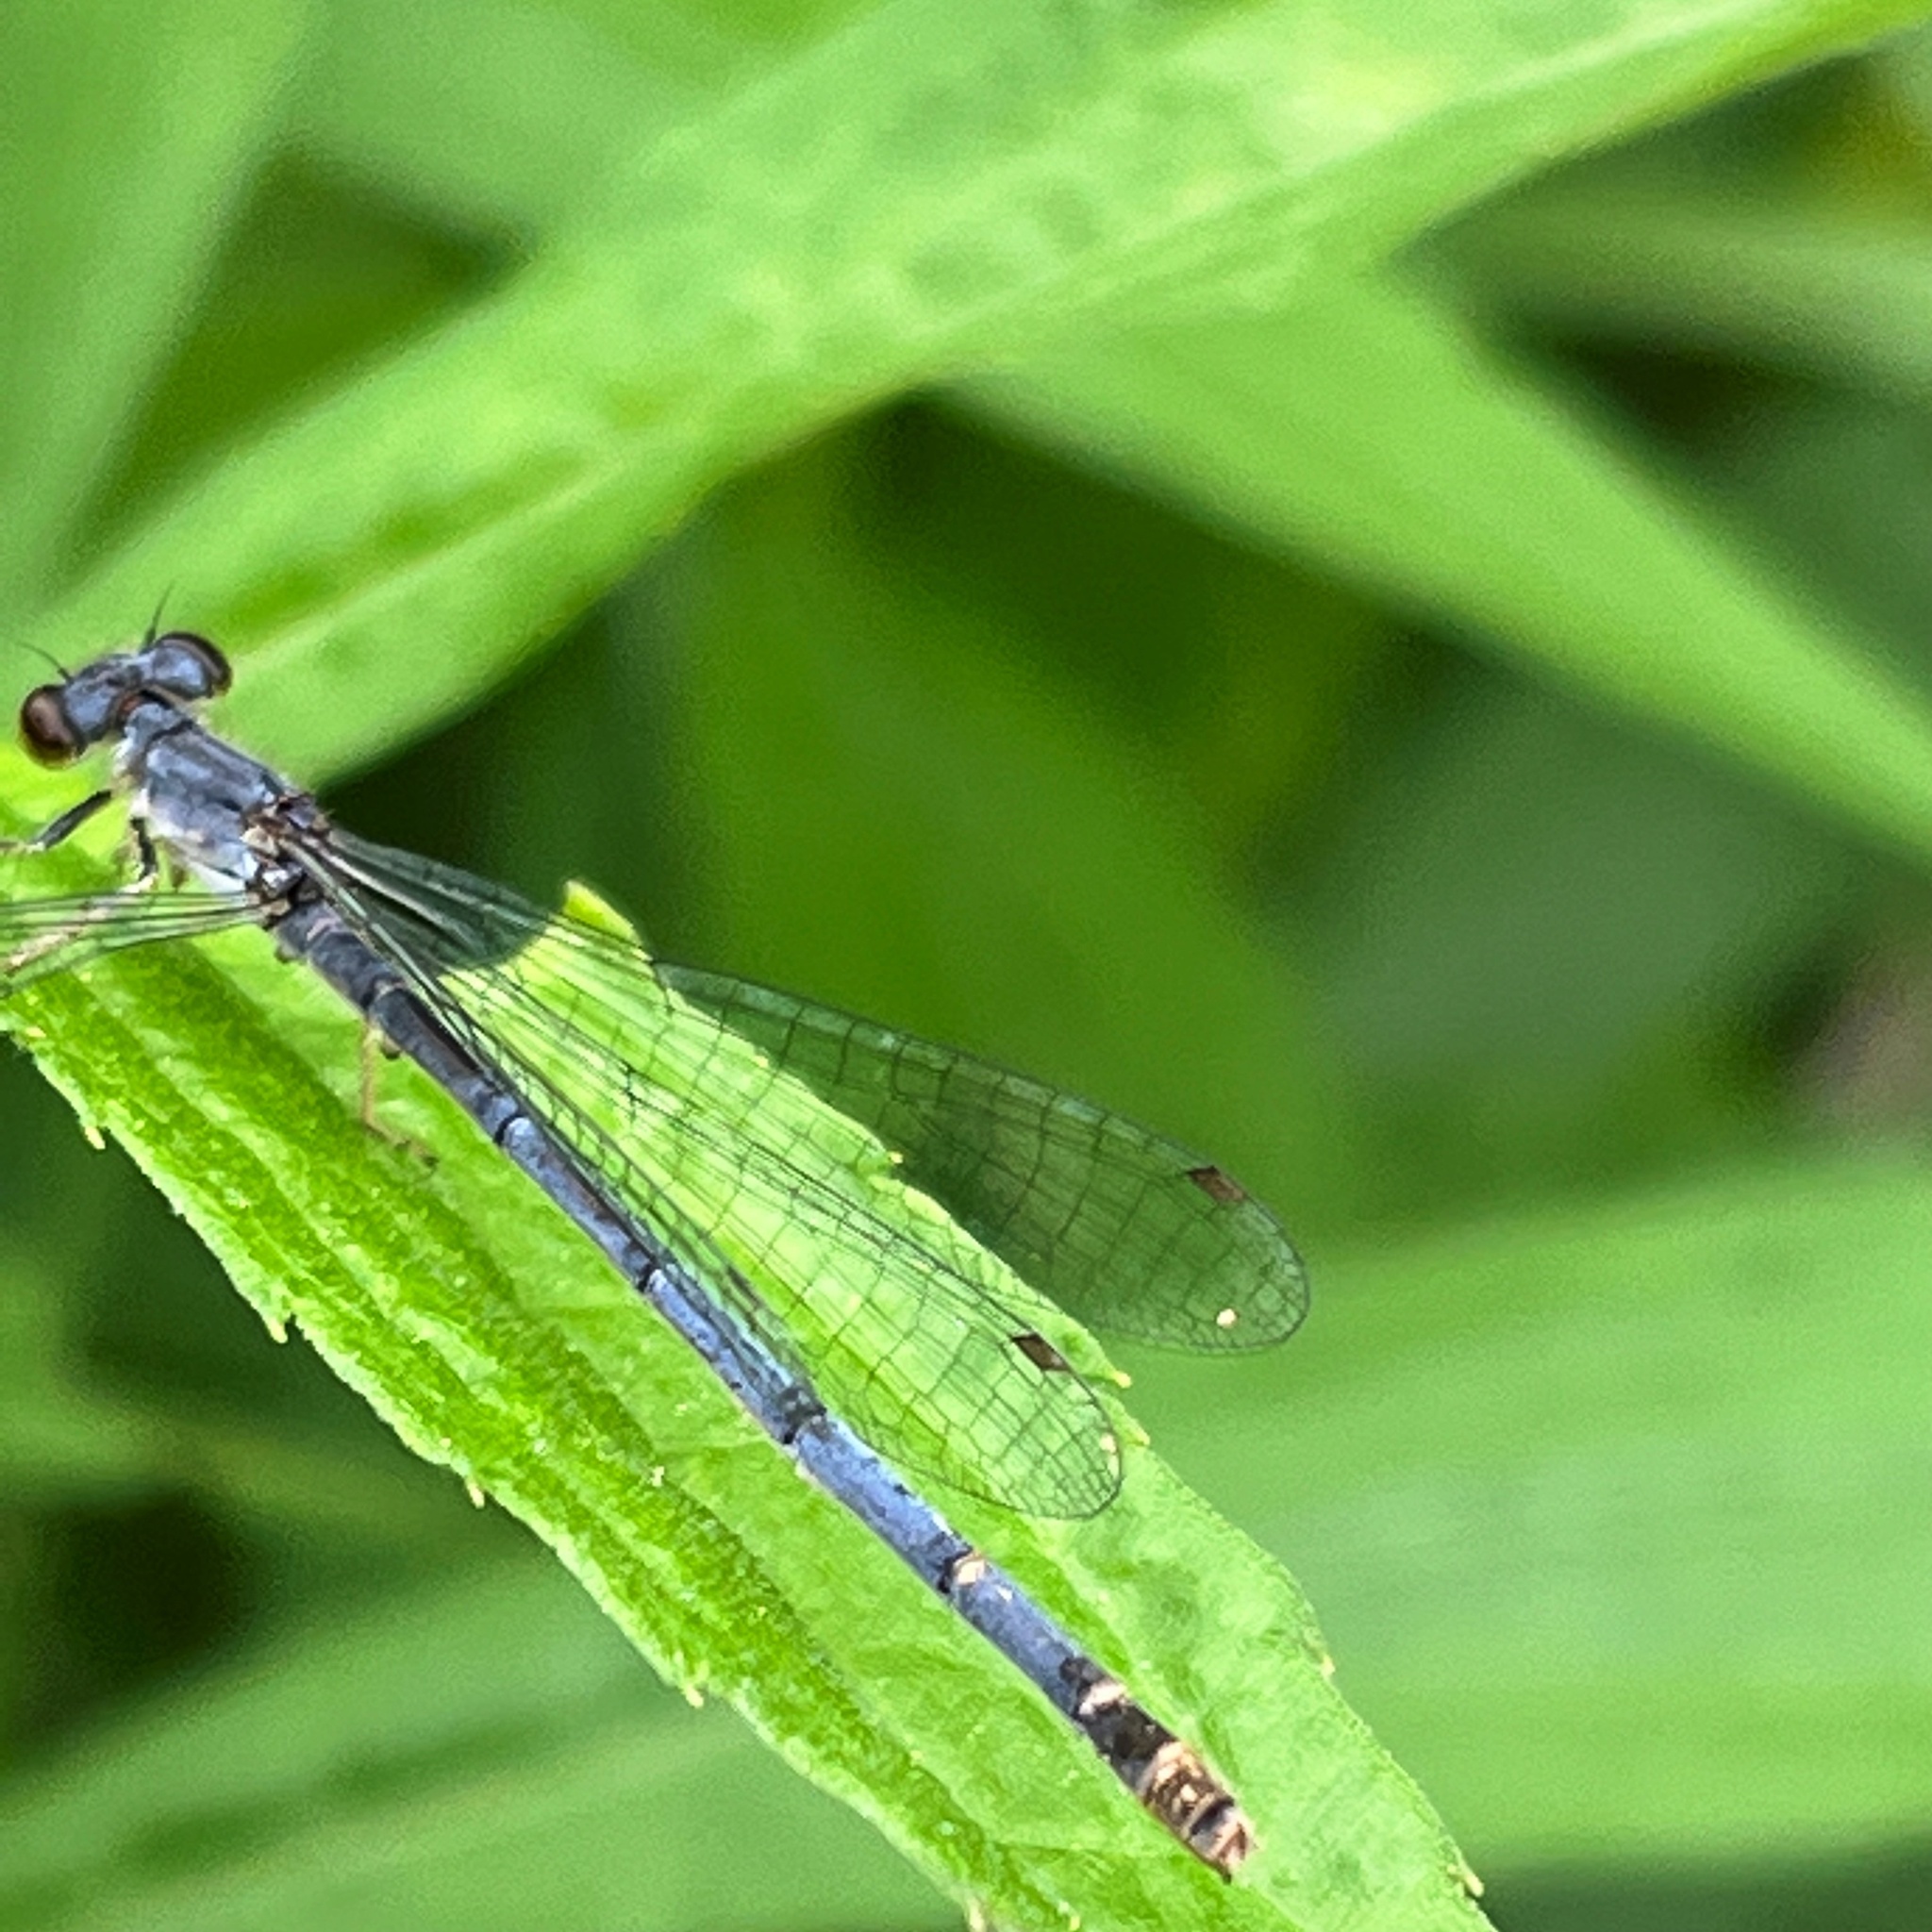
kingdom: Animalia
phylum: Arthropoda
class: Insecta
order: Odonata
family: Coenagrionidae
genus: Ischnura
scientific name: Ischnura posita
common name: Fragile forktail
